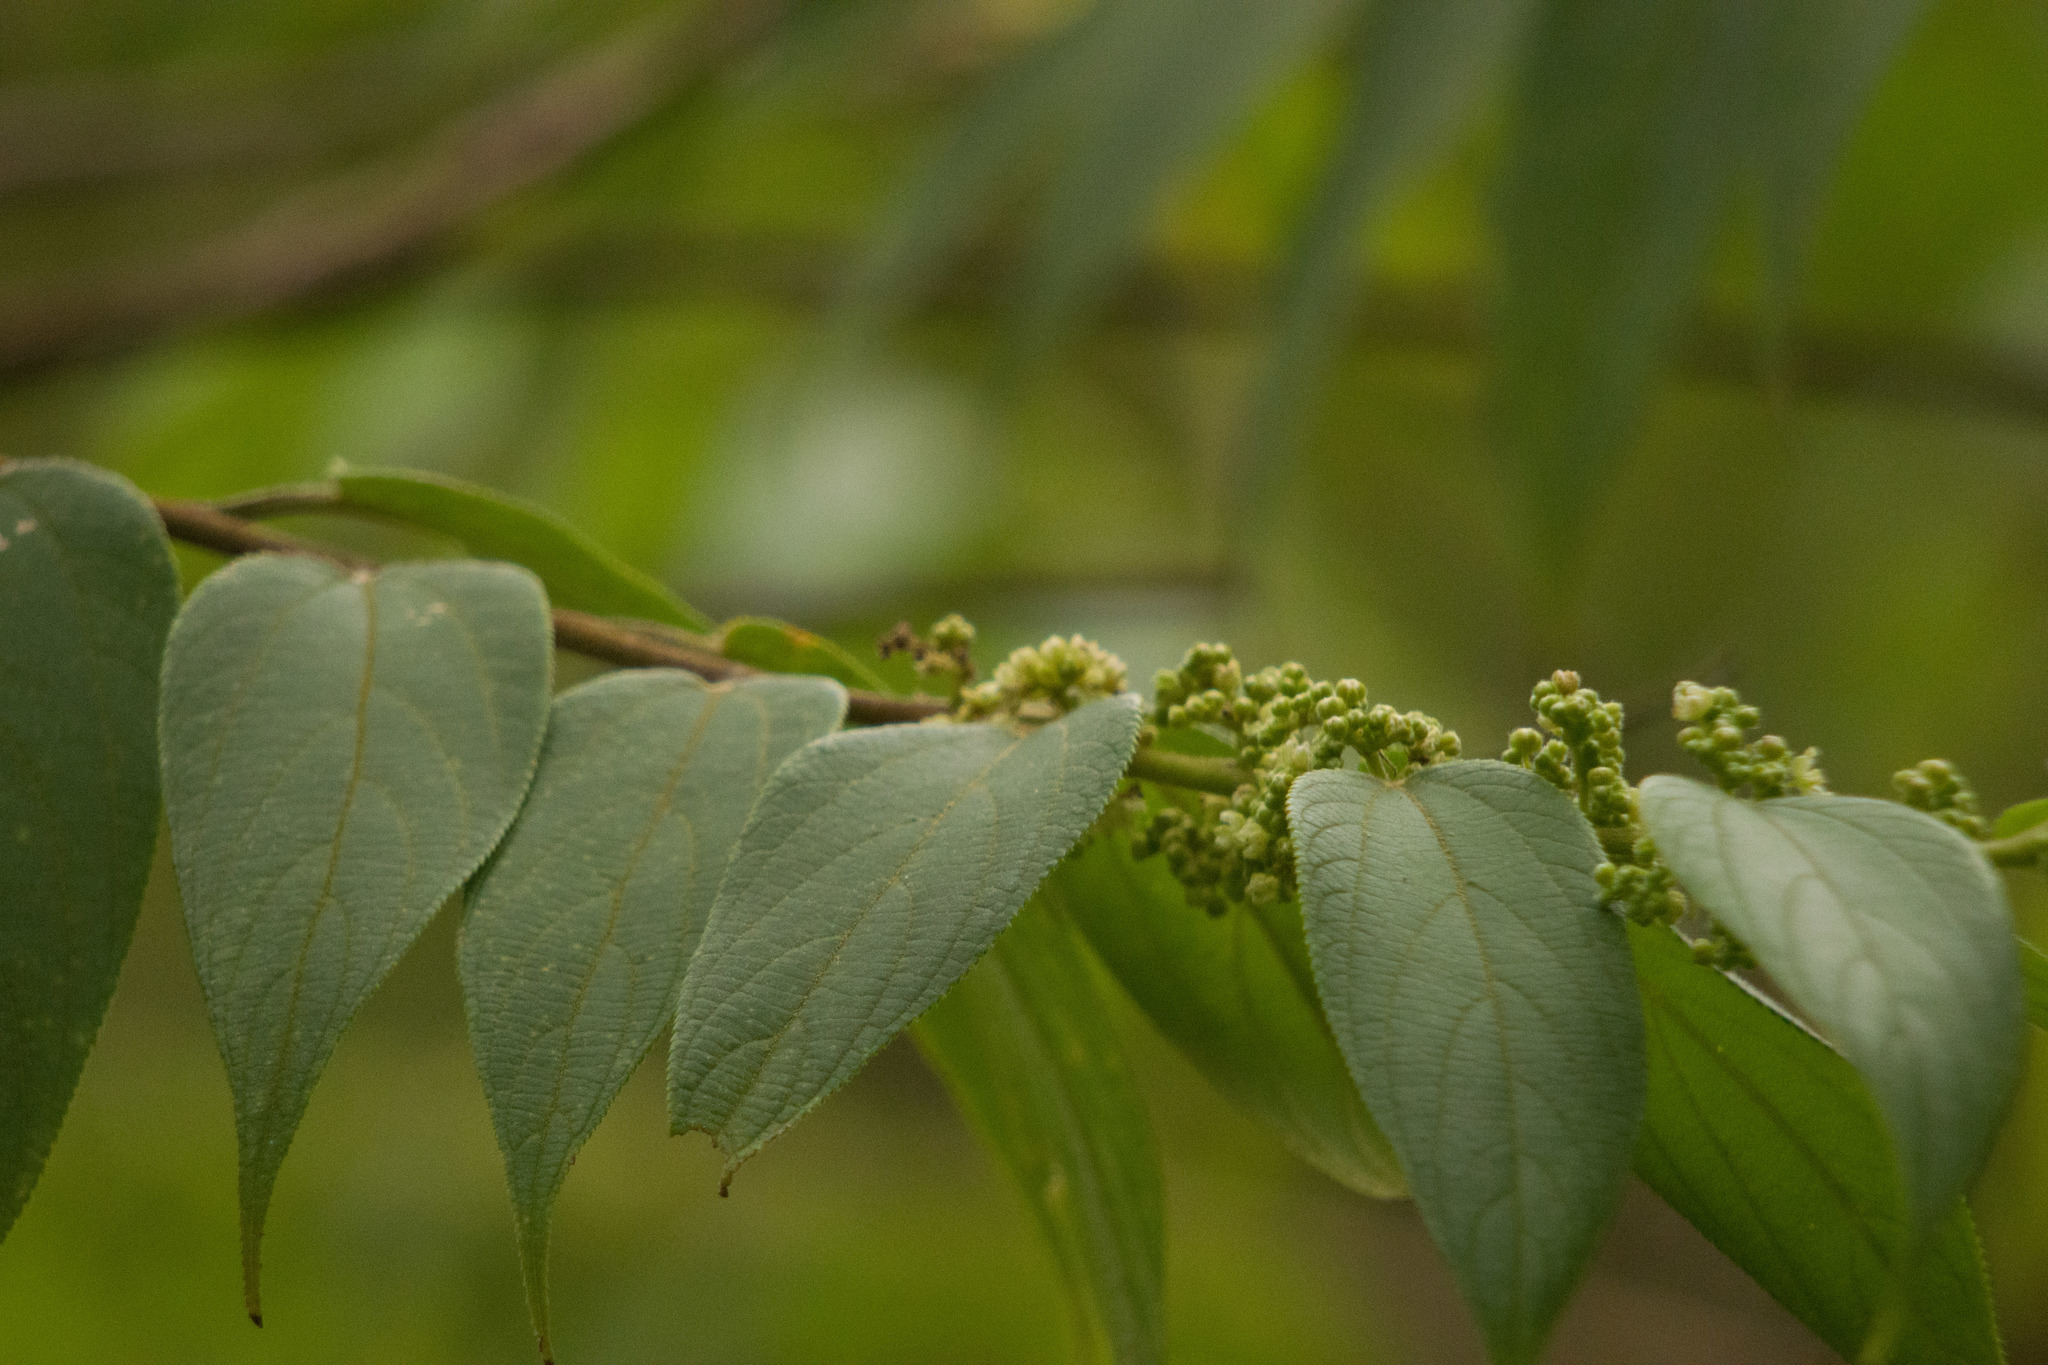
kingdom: Plantae
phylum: Tracheophyta
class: Magnoliopsida
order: Rosales
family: Cannabaceae
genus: Trema
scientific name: Trema orientale
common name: Indian charcoal tree
